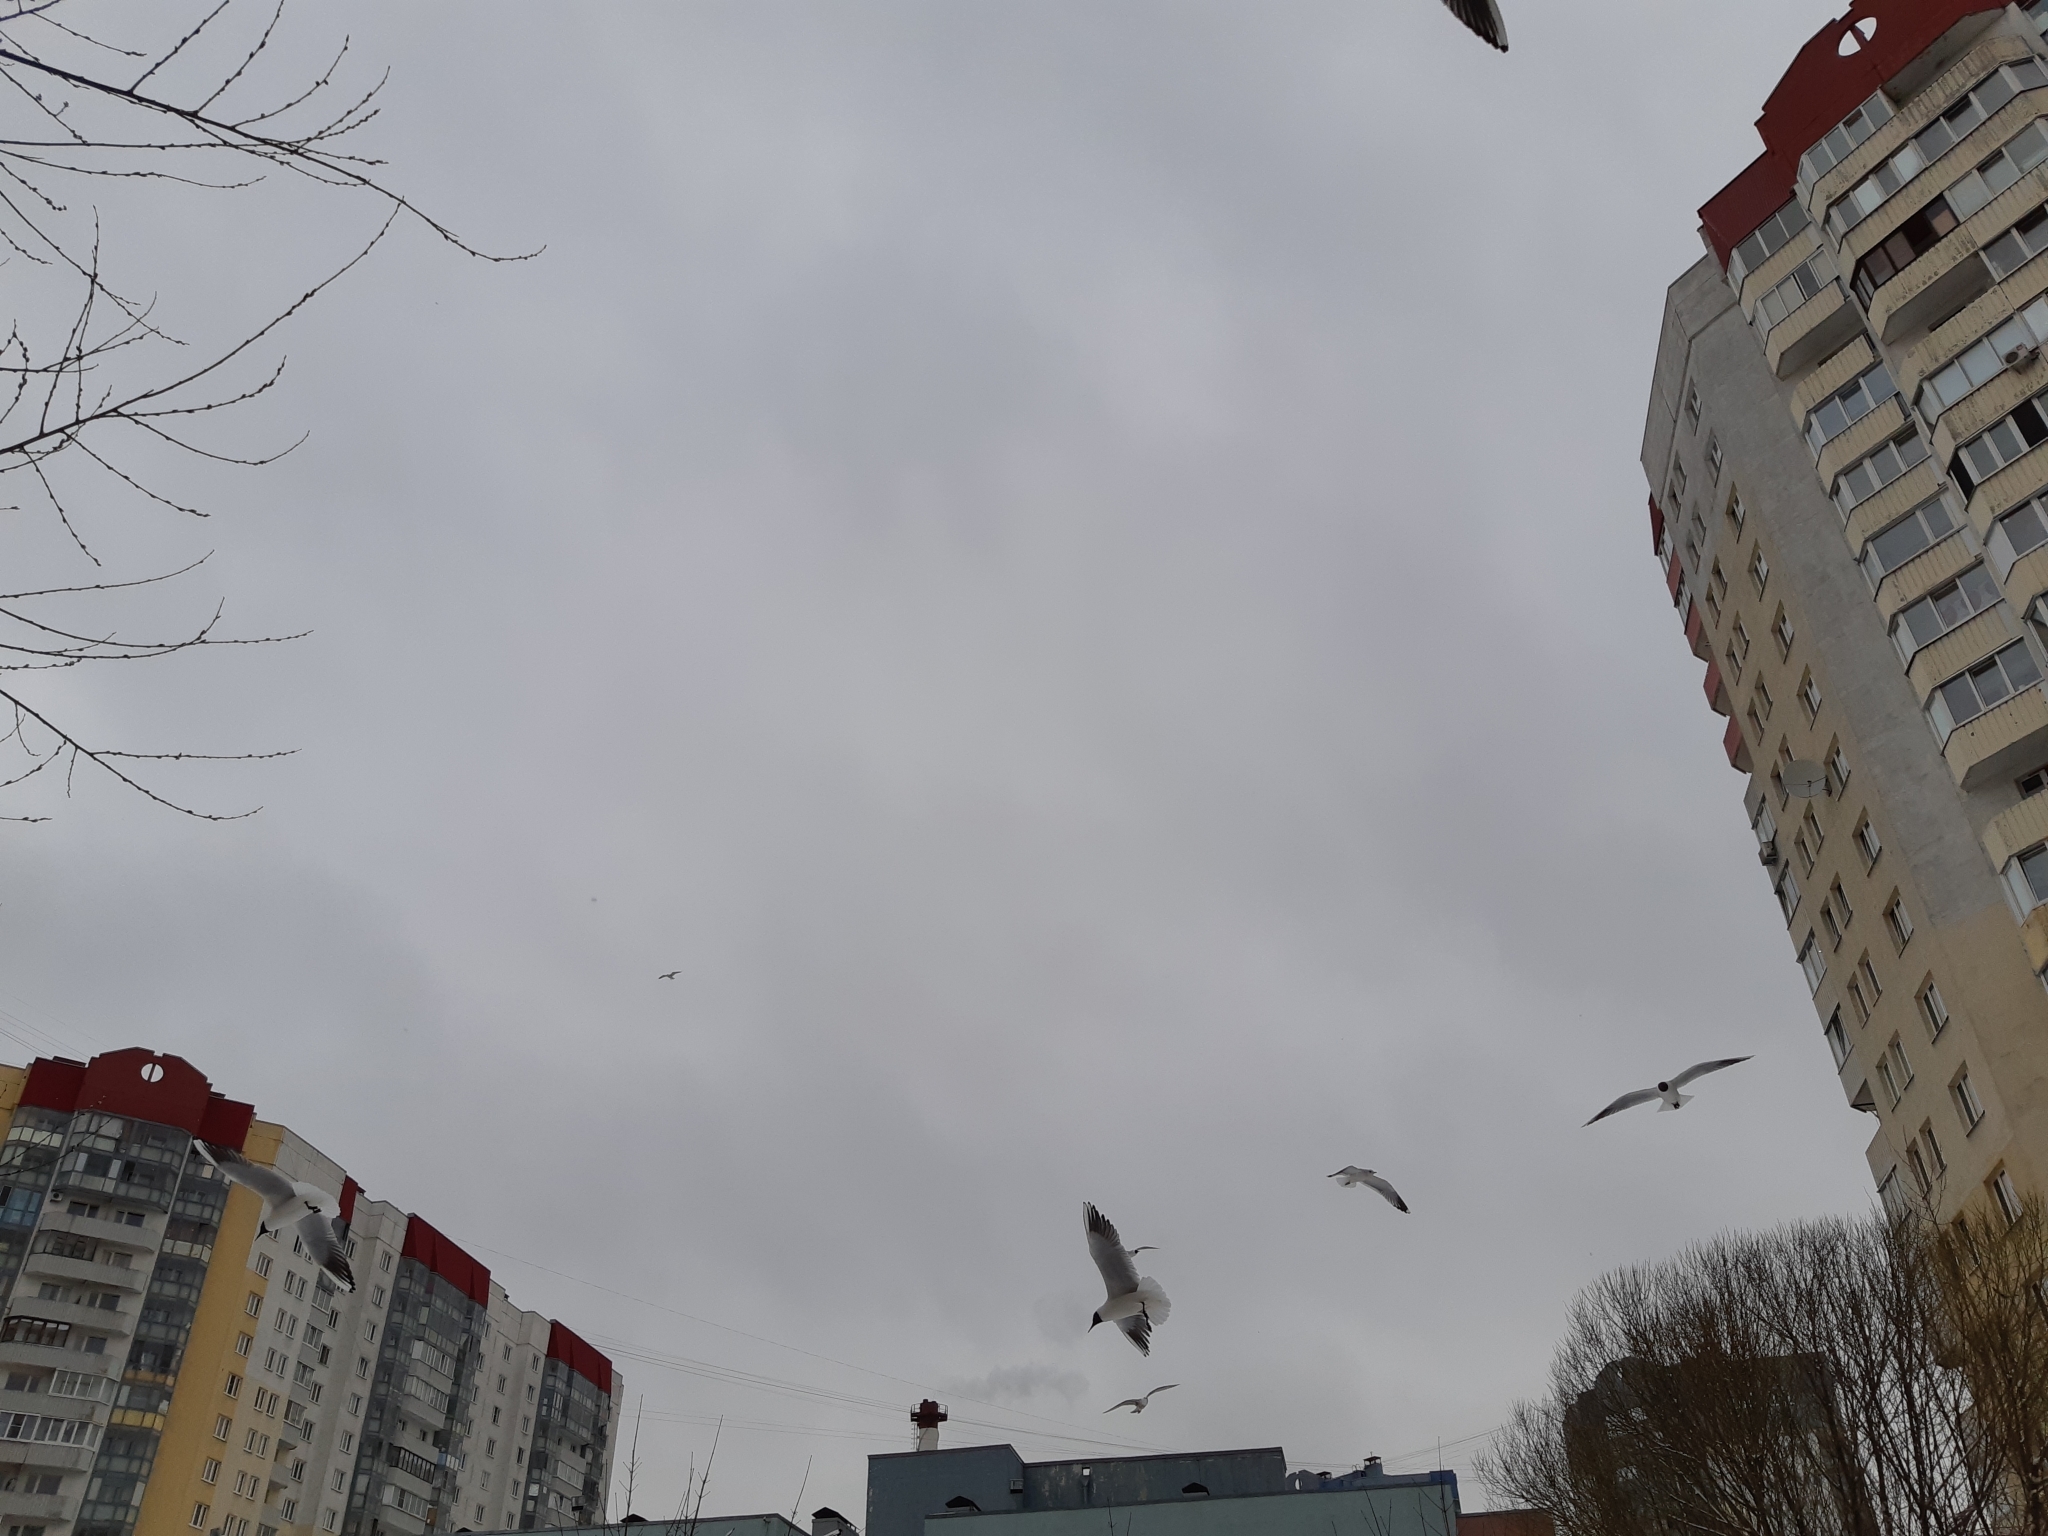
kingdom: Animalia
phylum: Chordata
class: Aves
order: Charadriiformes
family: Laridae
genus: Chroicocephalus
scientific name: Chroicocephalus ridibundus
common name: Black-headed gull
